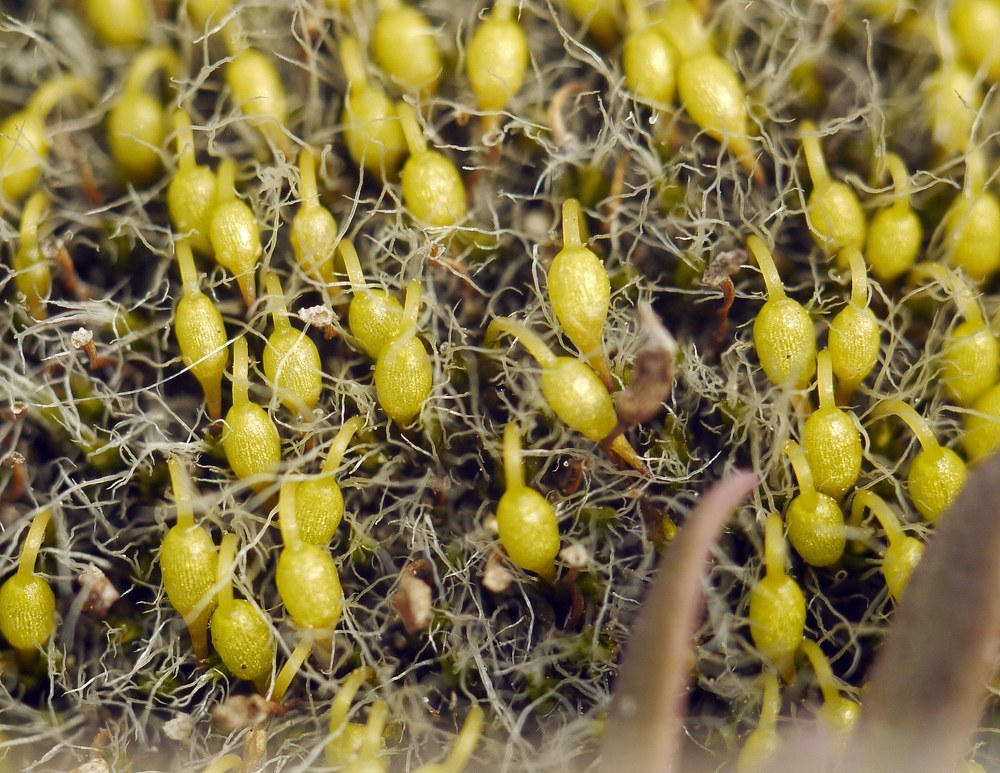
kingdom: Plantae
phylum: Bryophyta
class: Bryopsida
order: Grimmiales
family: Grimmiaceae
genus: Grimmia
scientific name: Grimmia pulvinata
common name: Grey-cushioned grimmia
